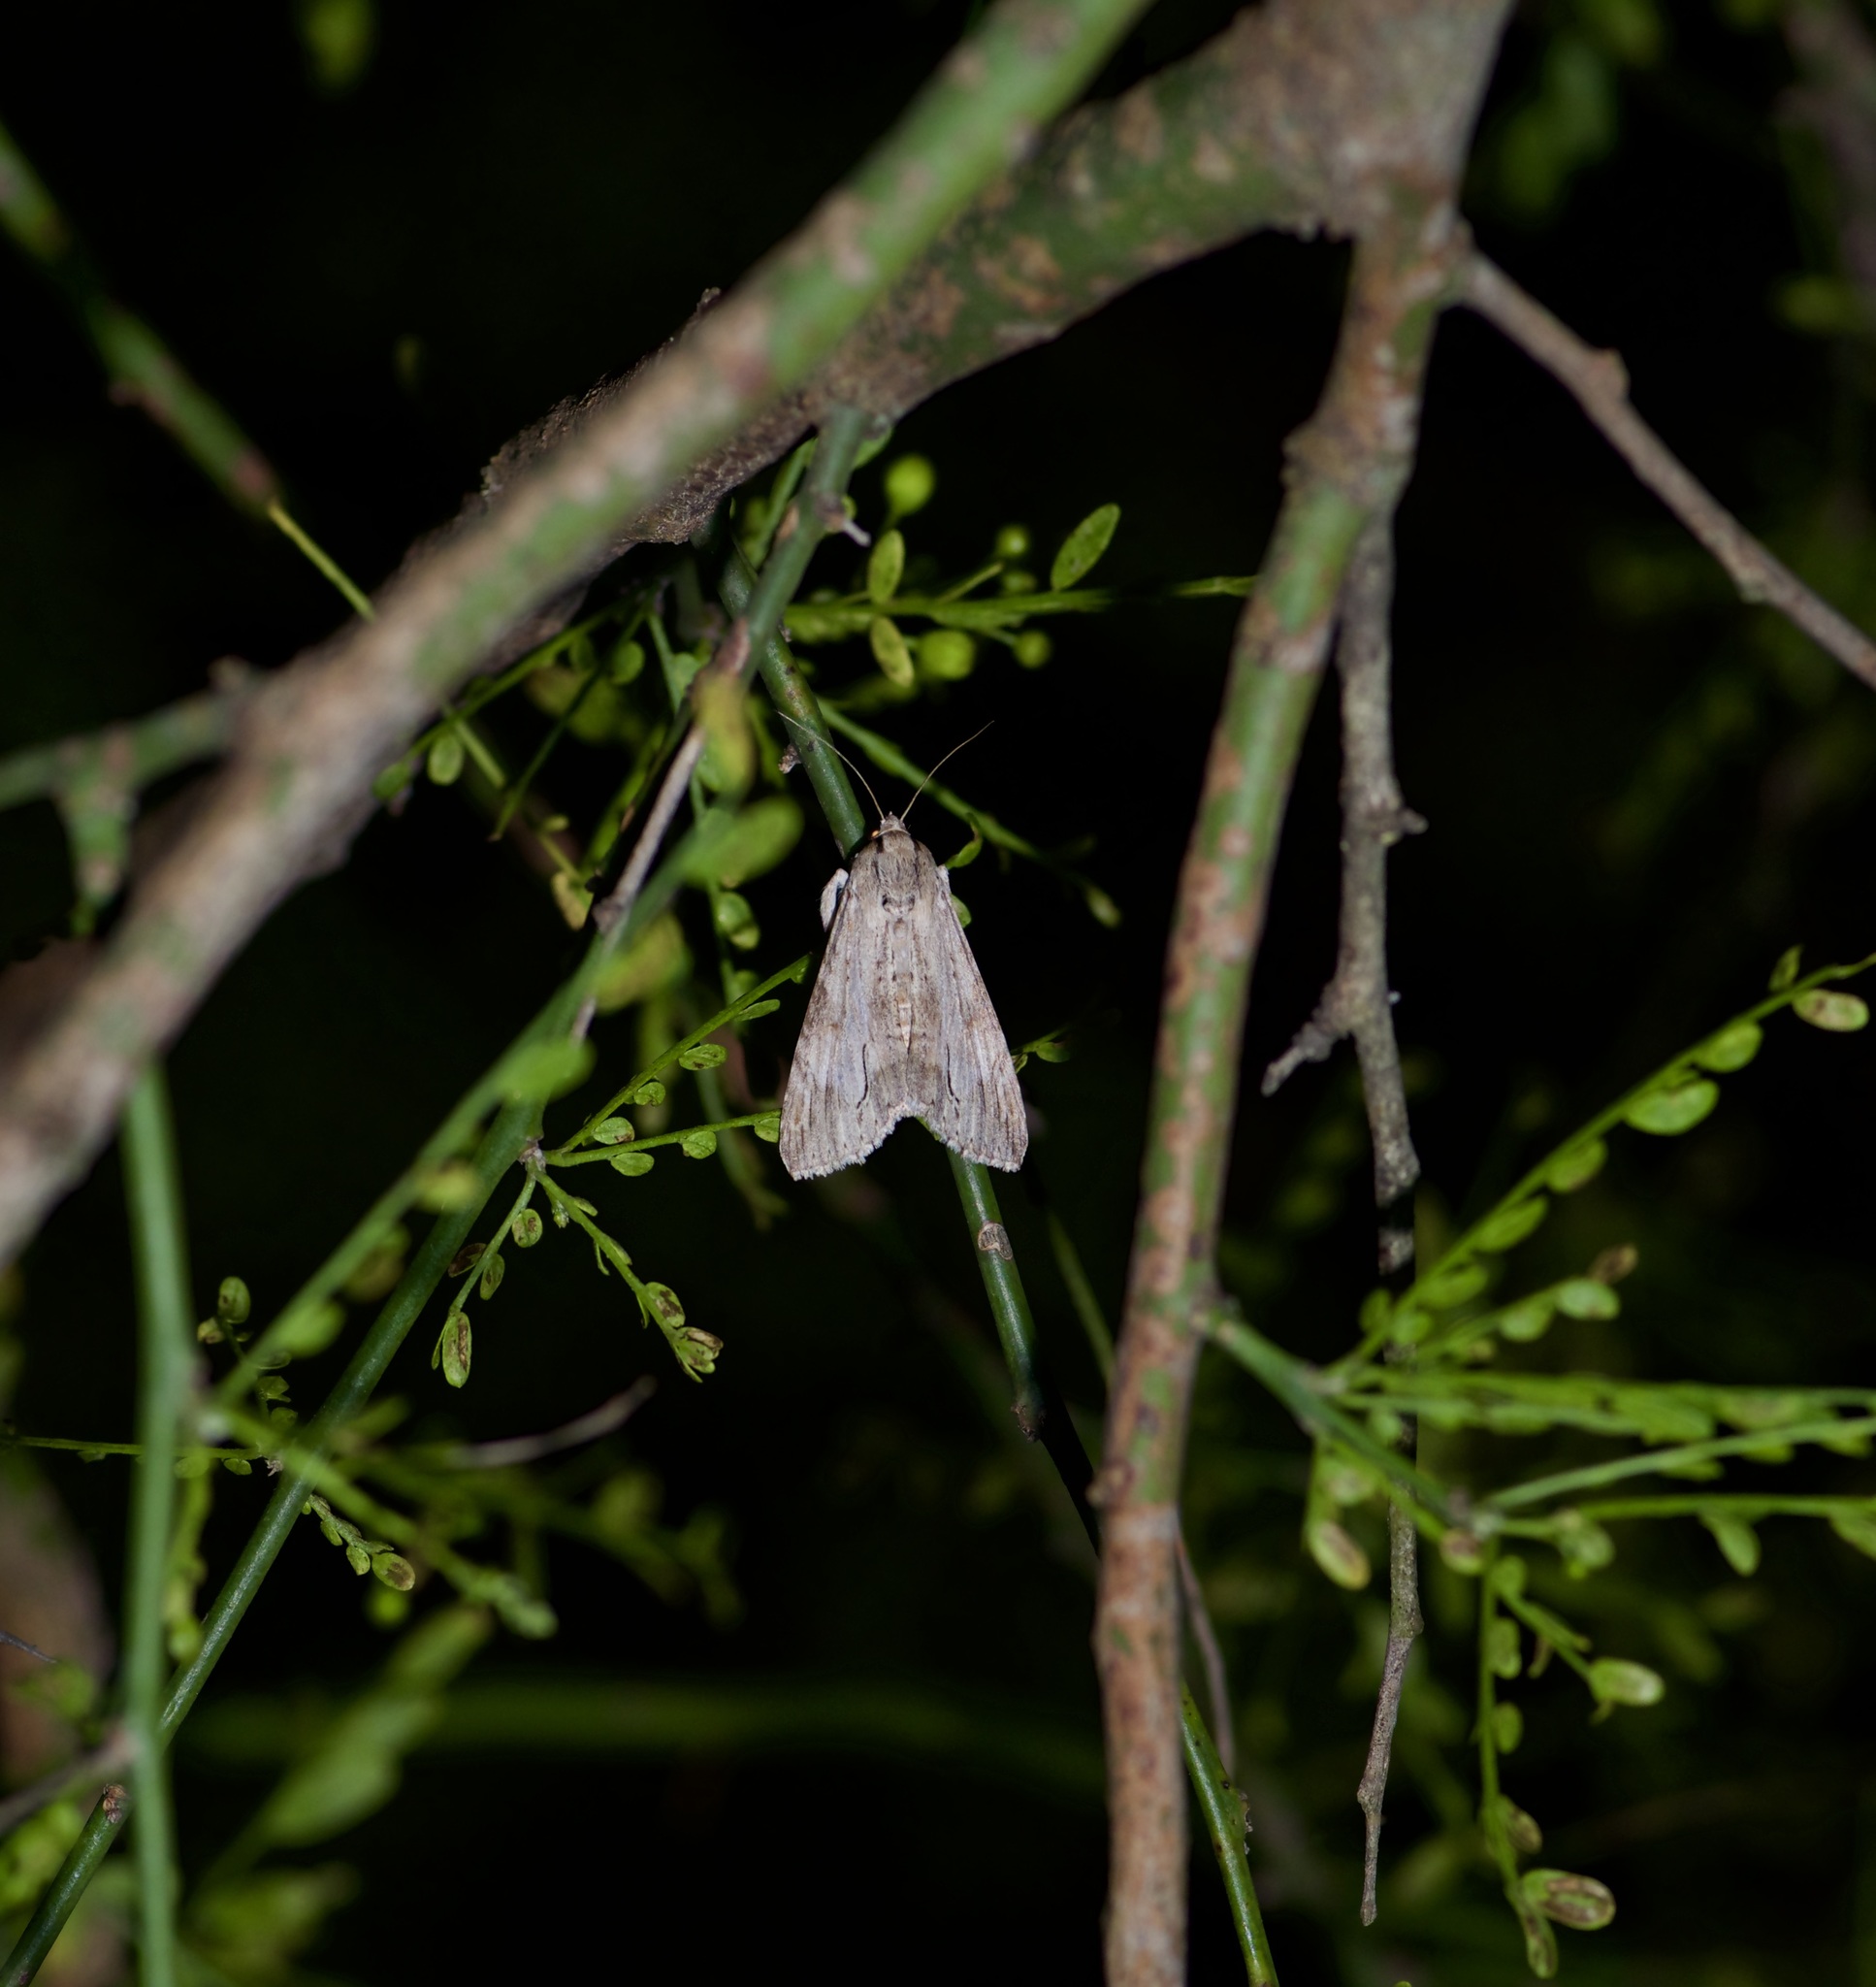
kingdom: Animalia
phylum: Arthropoda
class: Insecta
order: Lepidoptera
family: Erebidae
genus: Melipotis
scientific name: Melipotis acontioides
